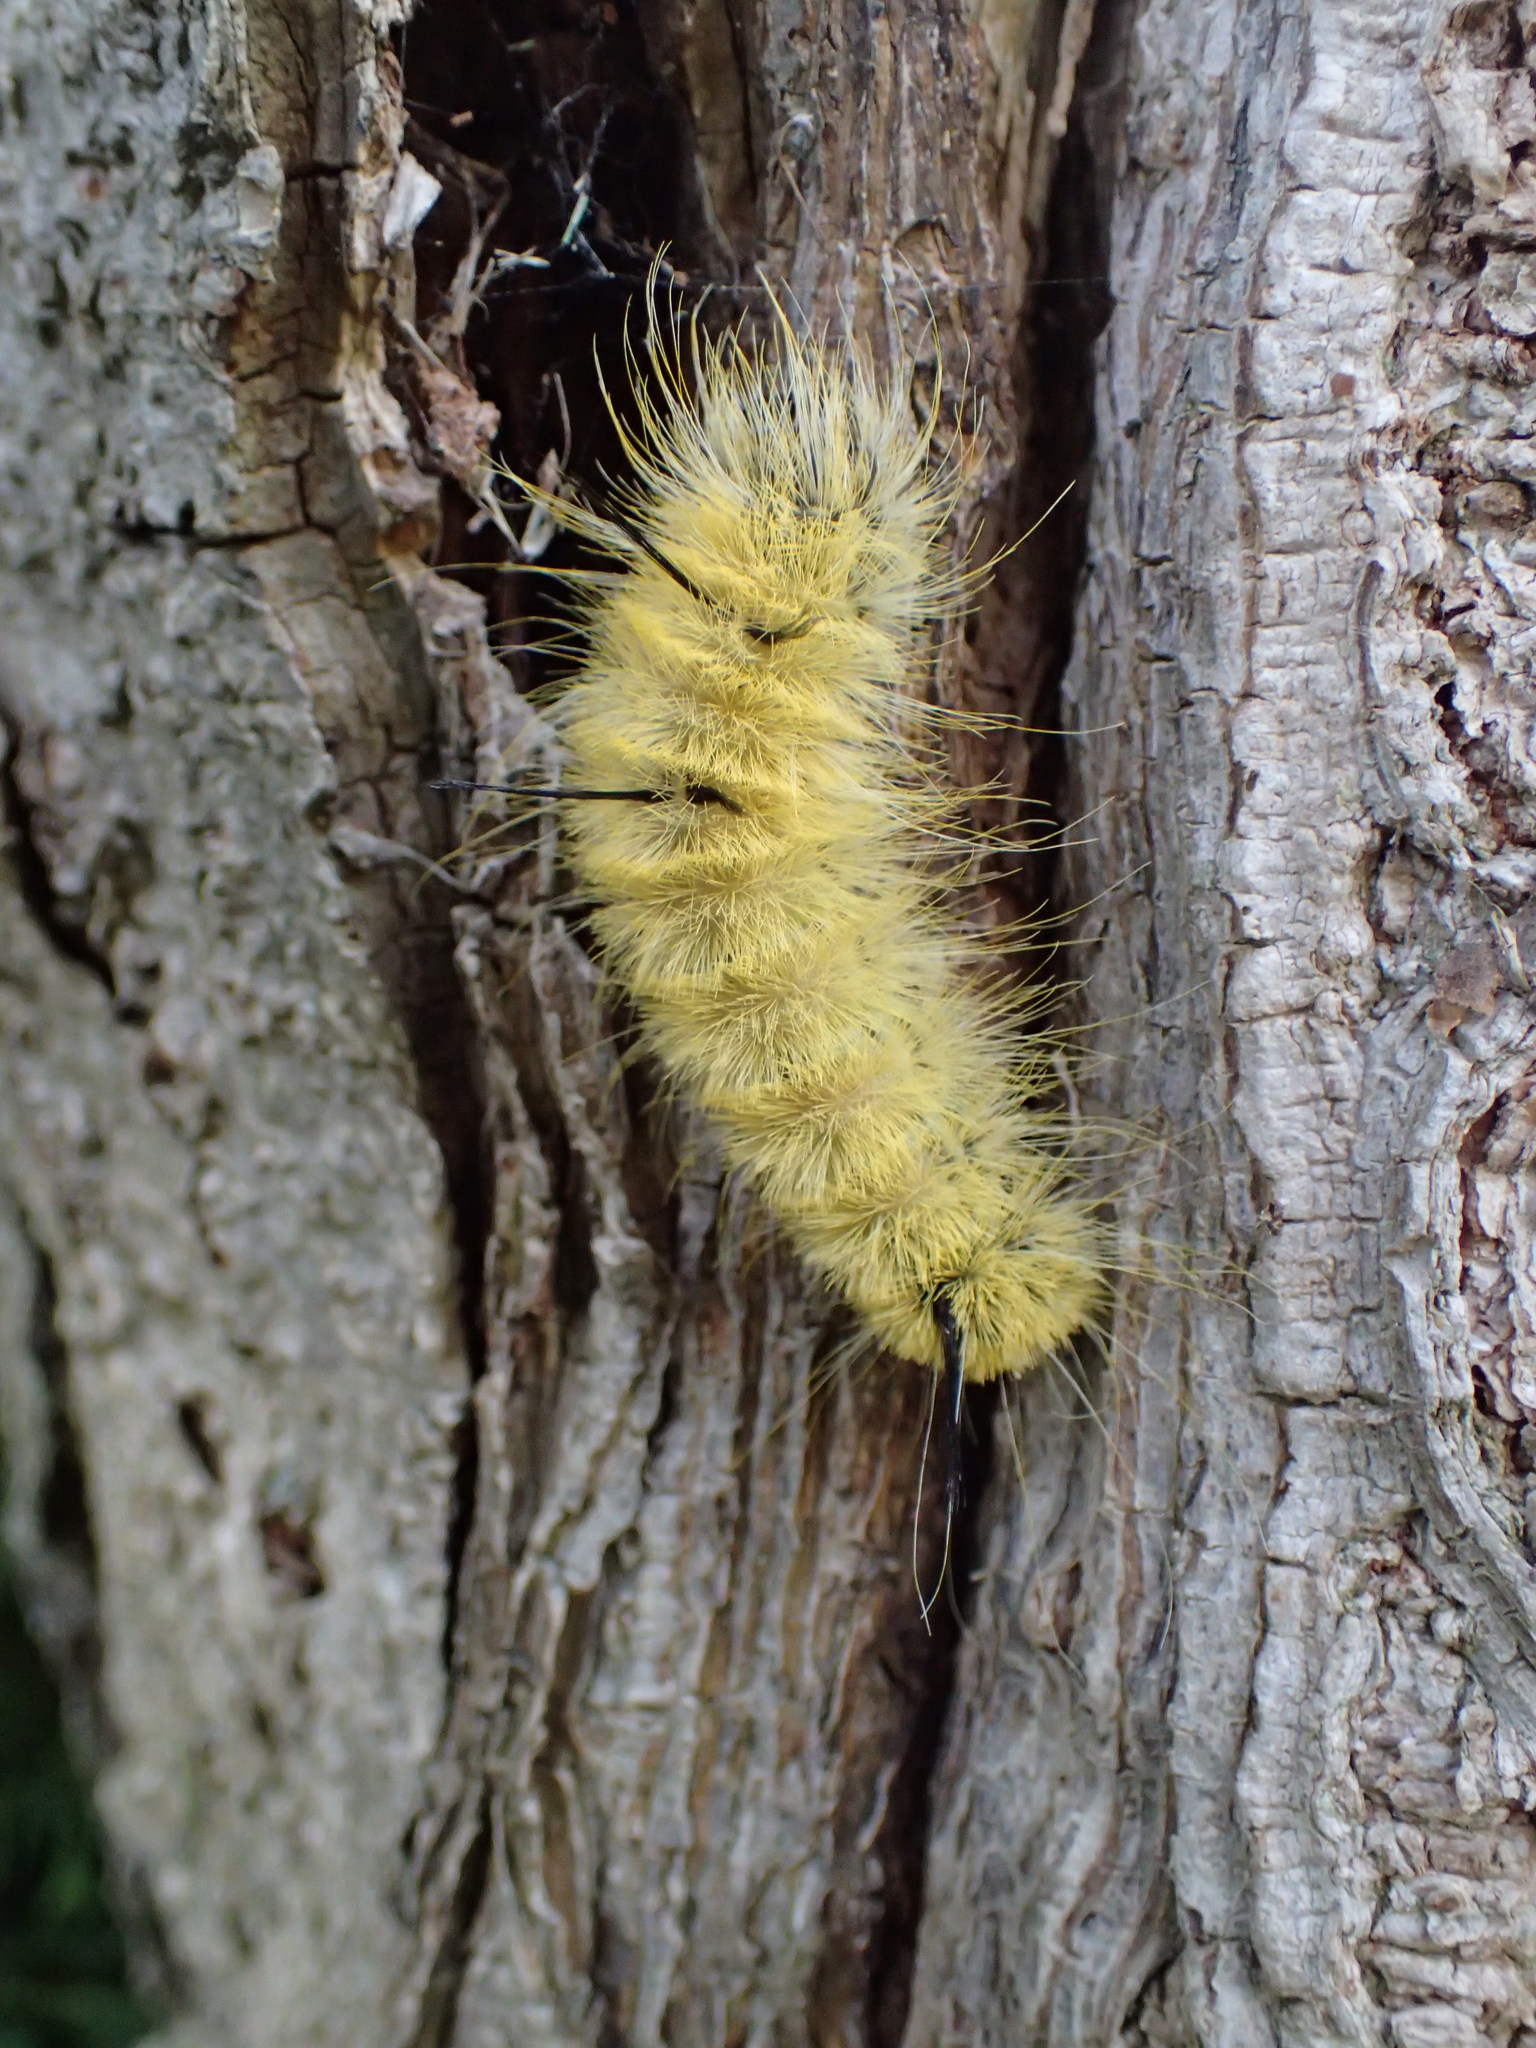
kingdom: Animalia
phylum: Arthropoda
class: Insecta
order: Lepidoptera
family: Noctuidae
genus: Acronicta
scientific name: Acronicta americana
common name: American dagger
